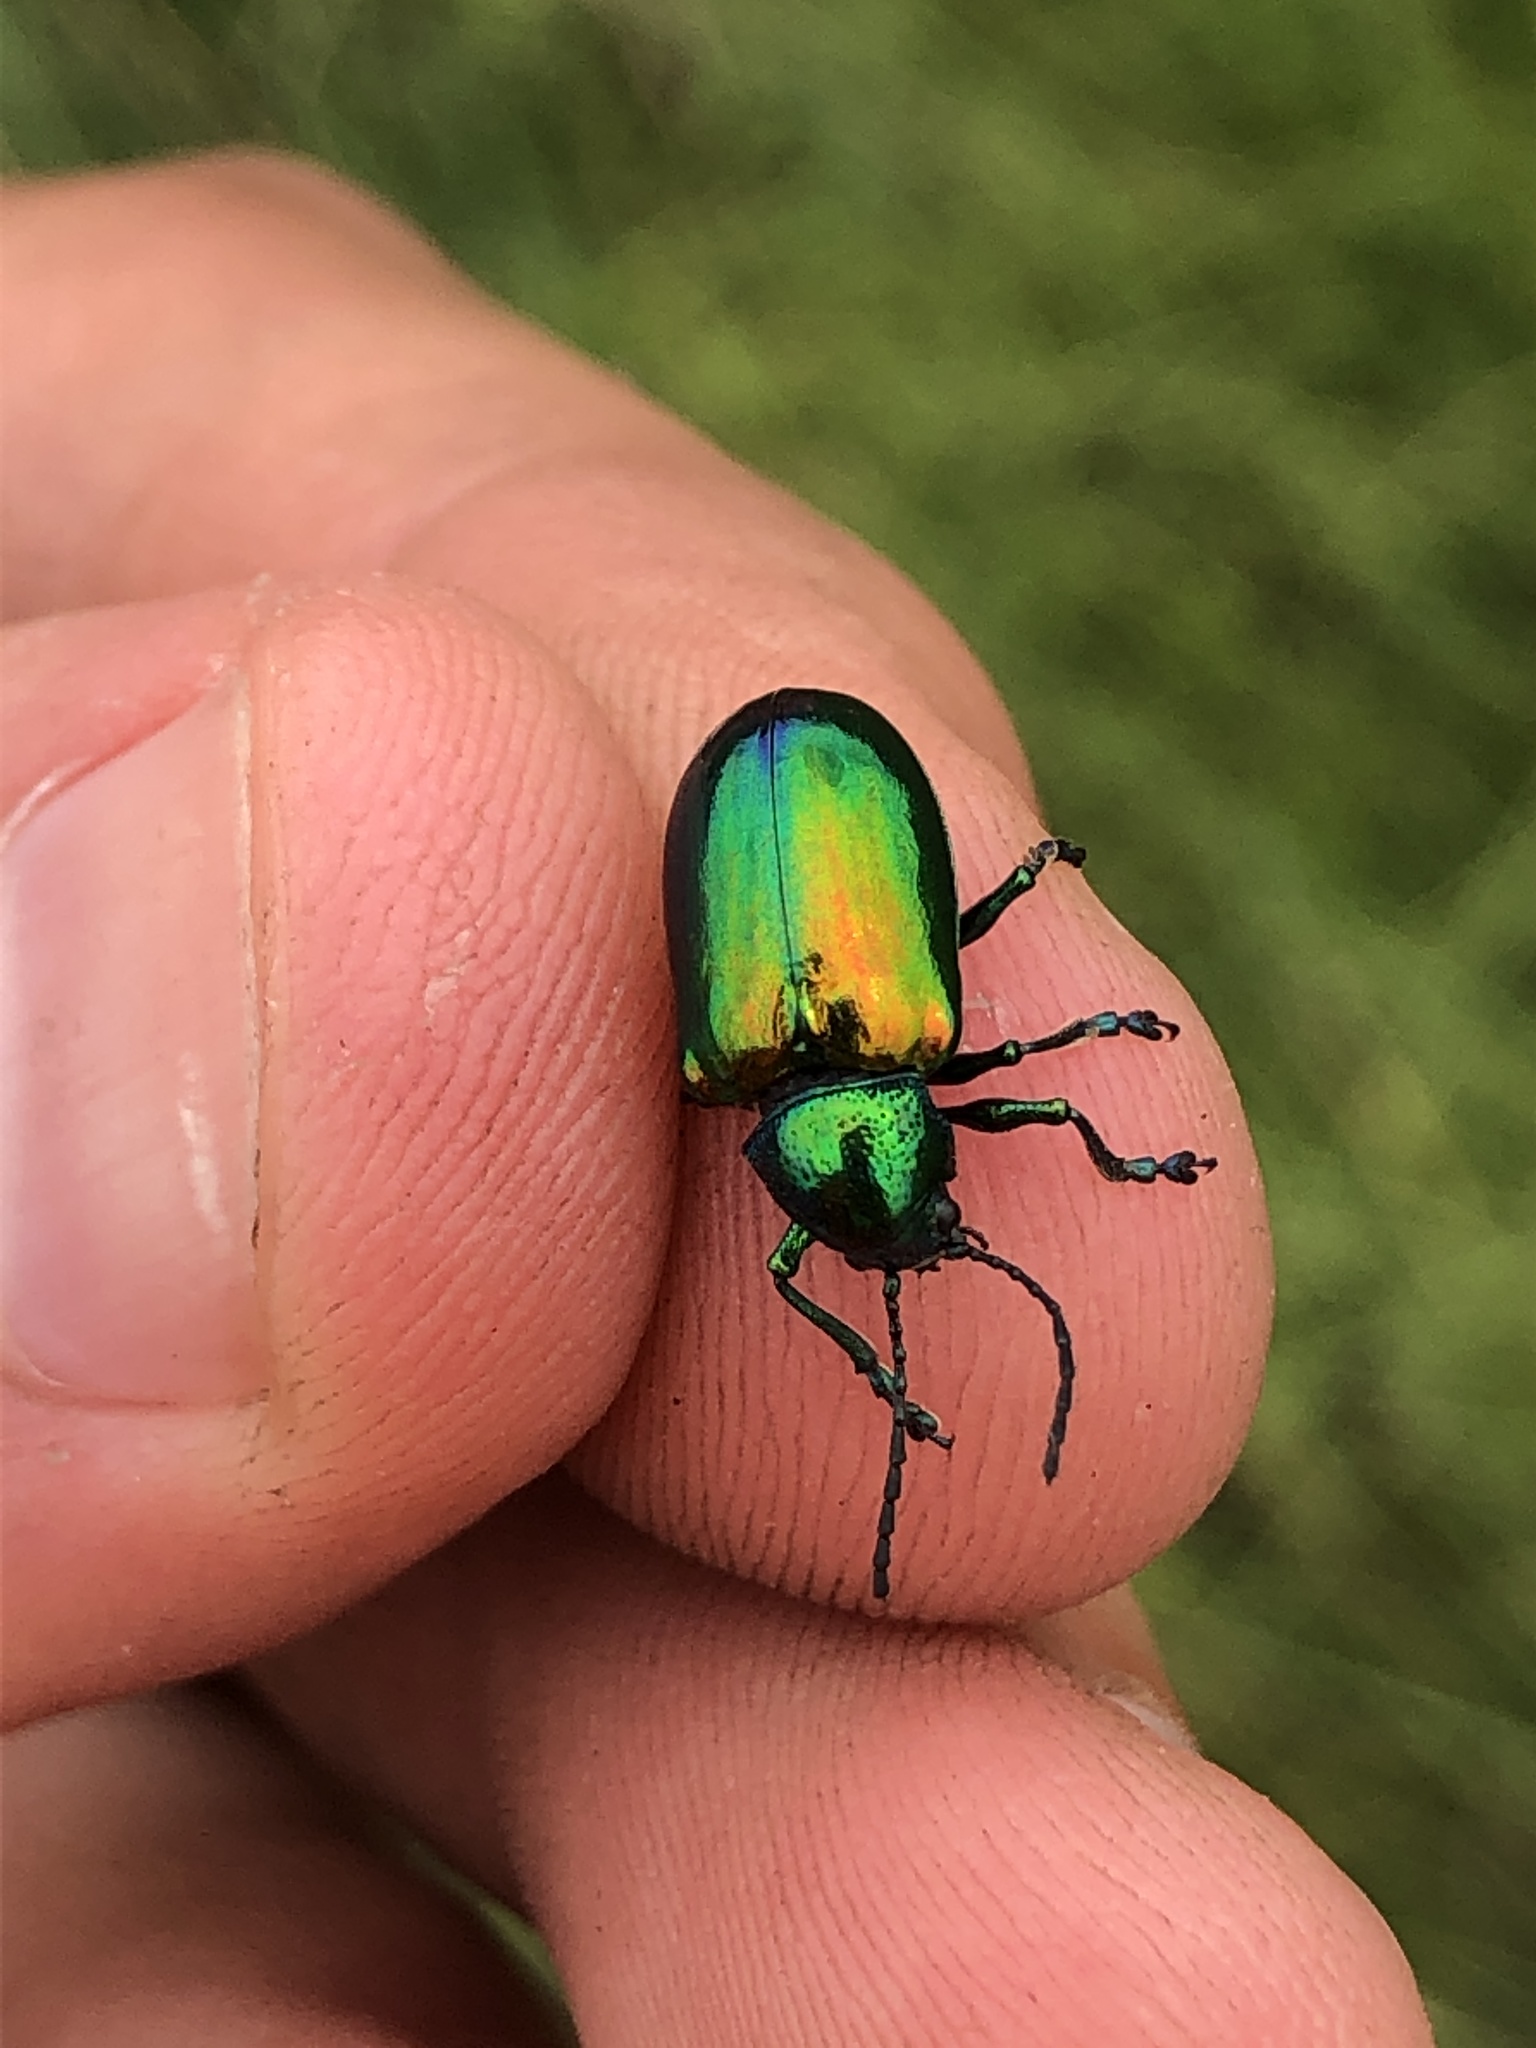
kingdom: Animalia
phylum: Arthropoda
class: Insecta
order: Coleoptera
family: Chrysomelidae
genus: Chrysochus
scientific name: Chrysochus auratus
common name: Dogbane leaf beetle
